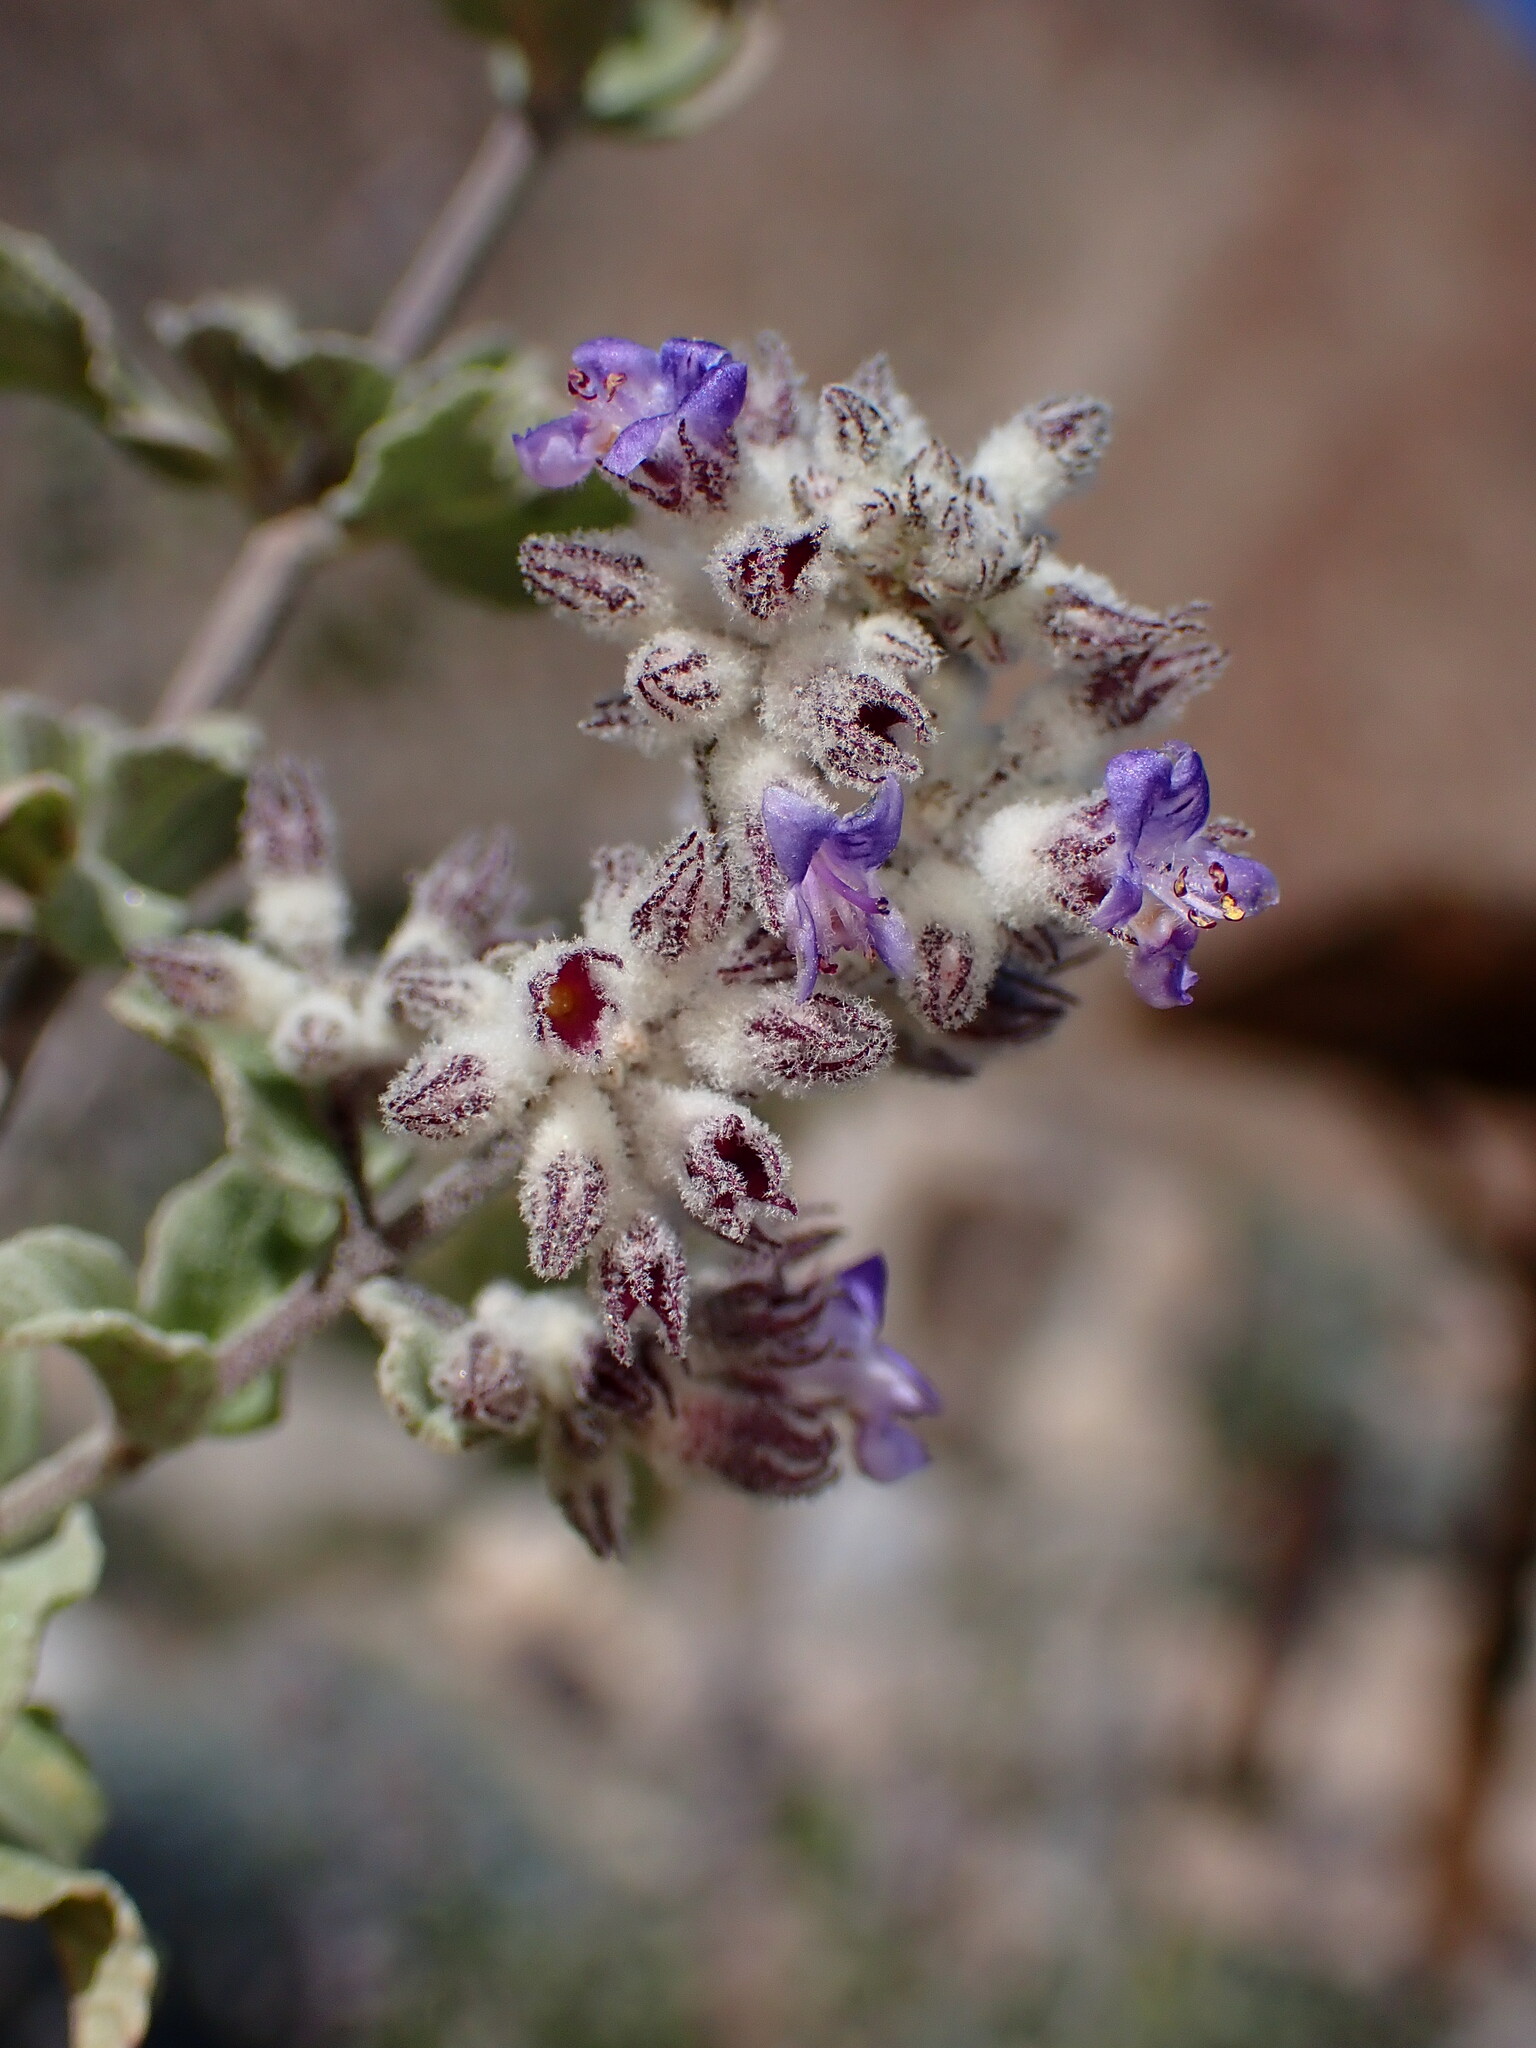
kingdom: Plantae
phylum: Tracheophyta
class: Magnoliopsida
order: Lamiales
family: Lamiaceae
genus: Condea
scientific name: Condea emoryi
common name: Chia
